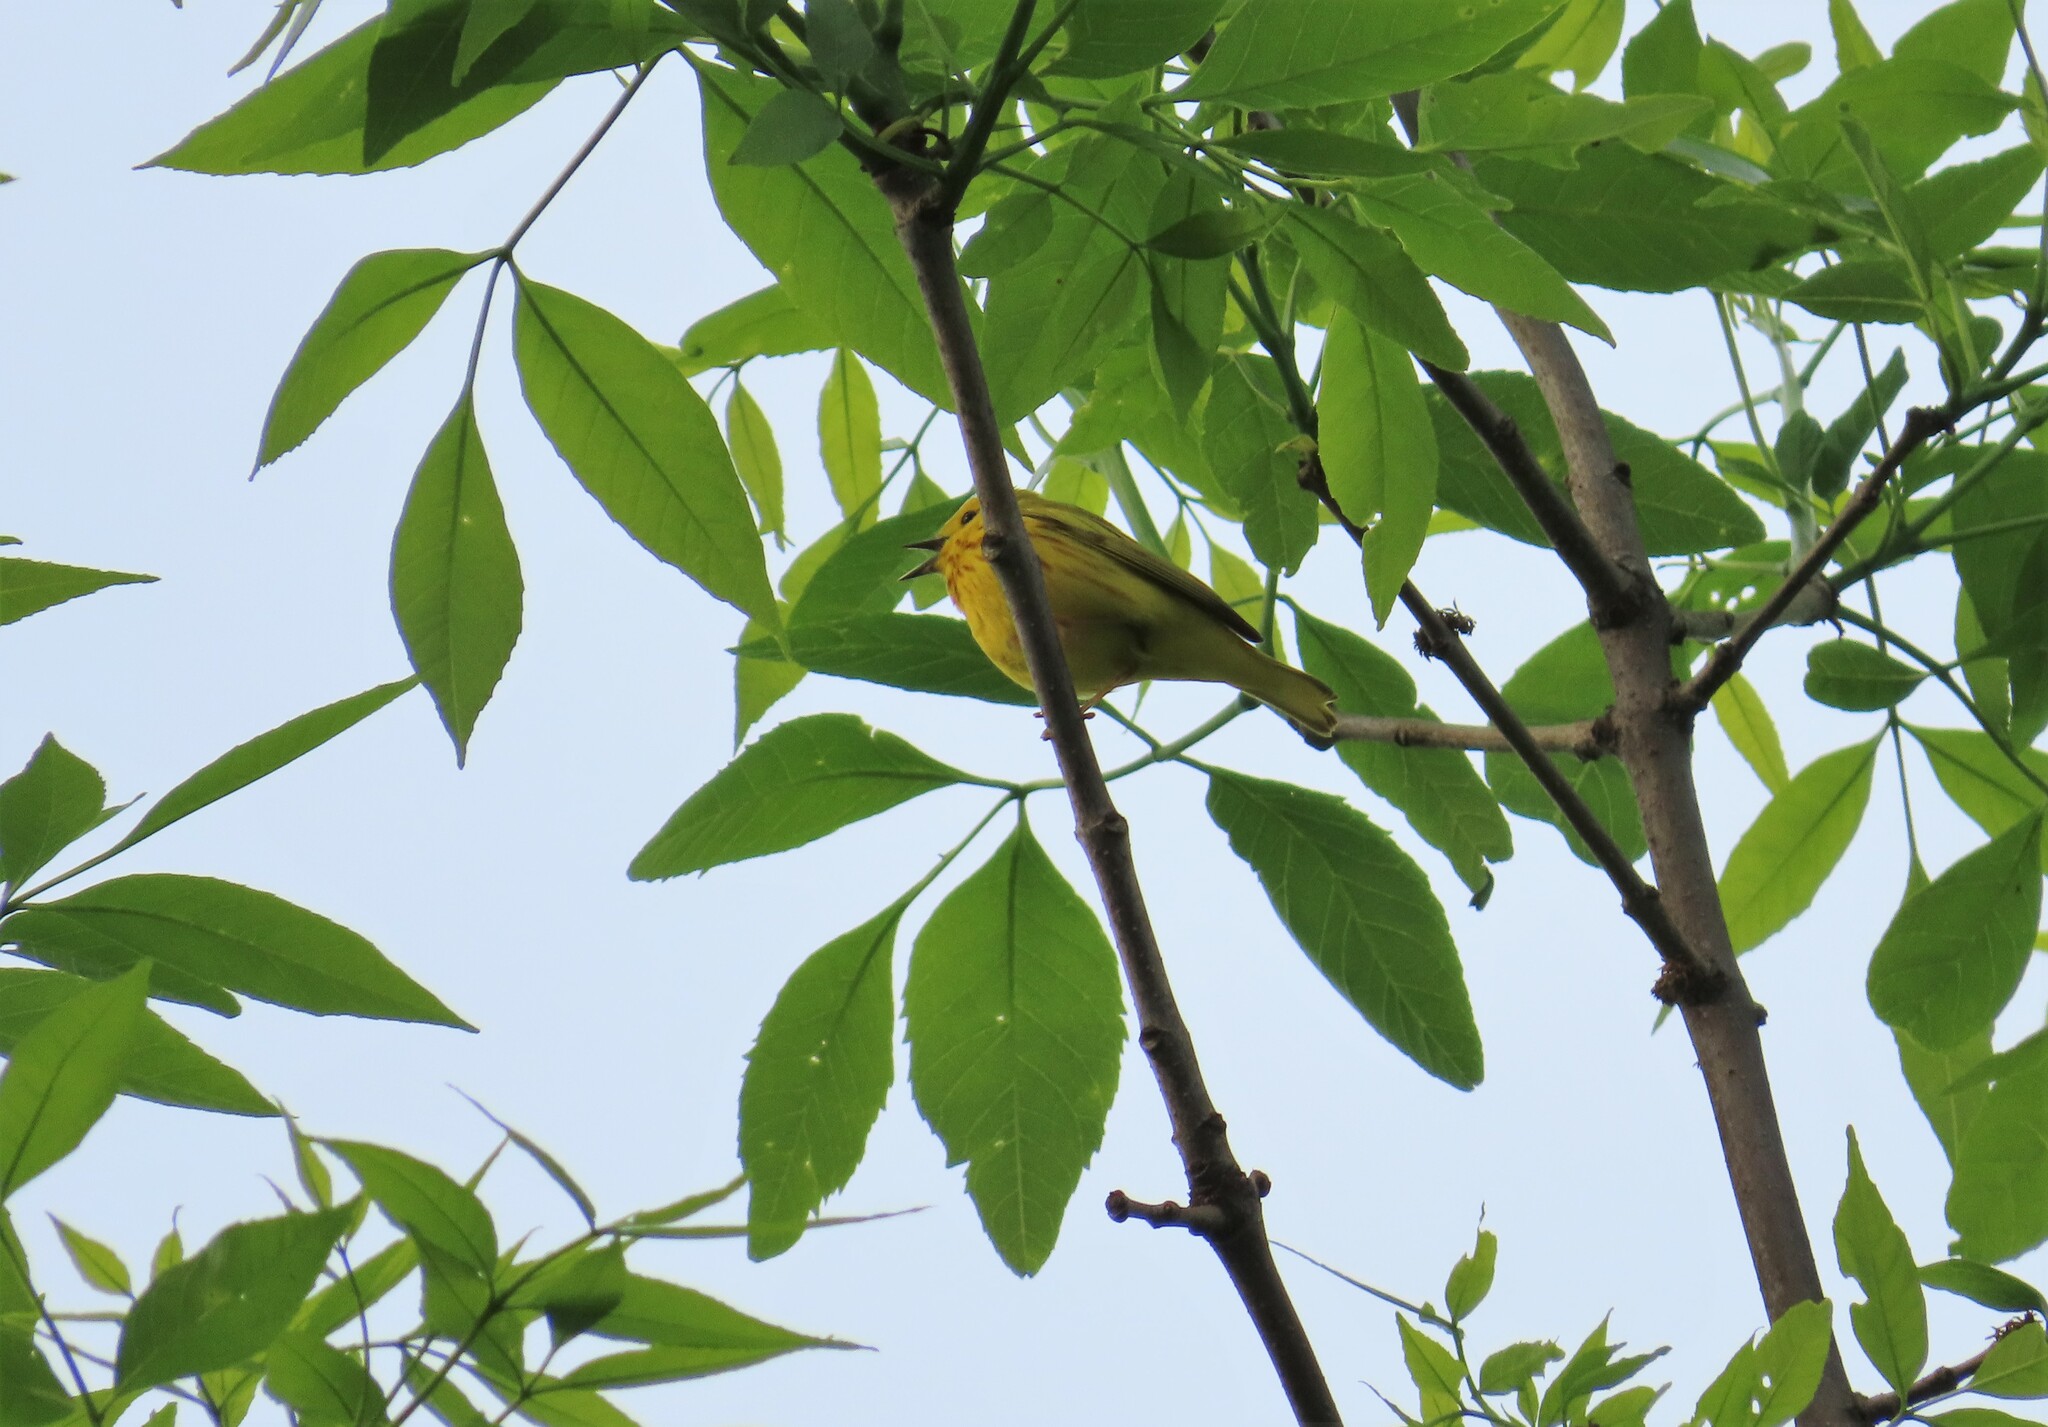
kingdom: Animalia
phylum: Chordata
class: Aves
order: Passeriformes
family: Parulidae
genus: Setophaga
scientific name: Setophaga petechia
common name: Yellow warbler
